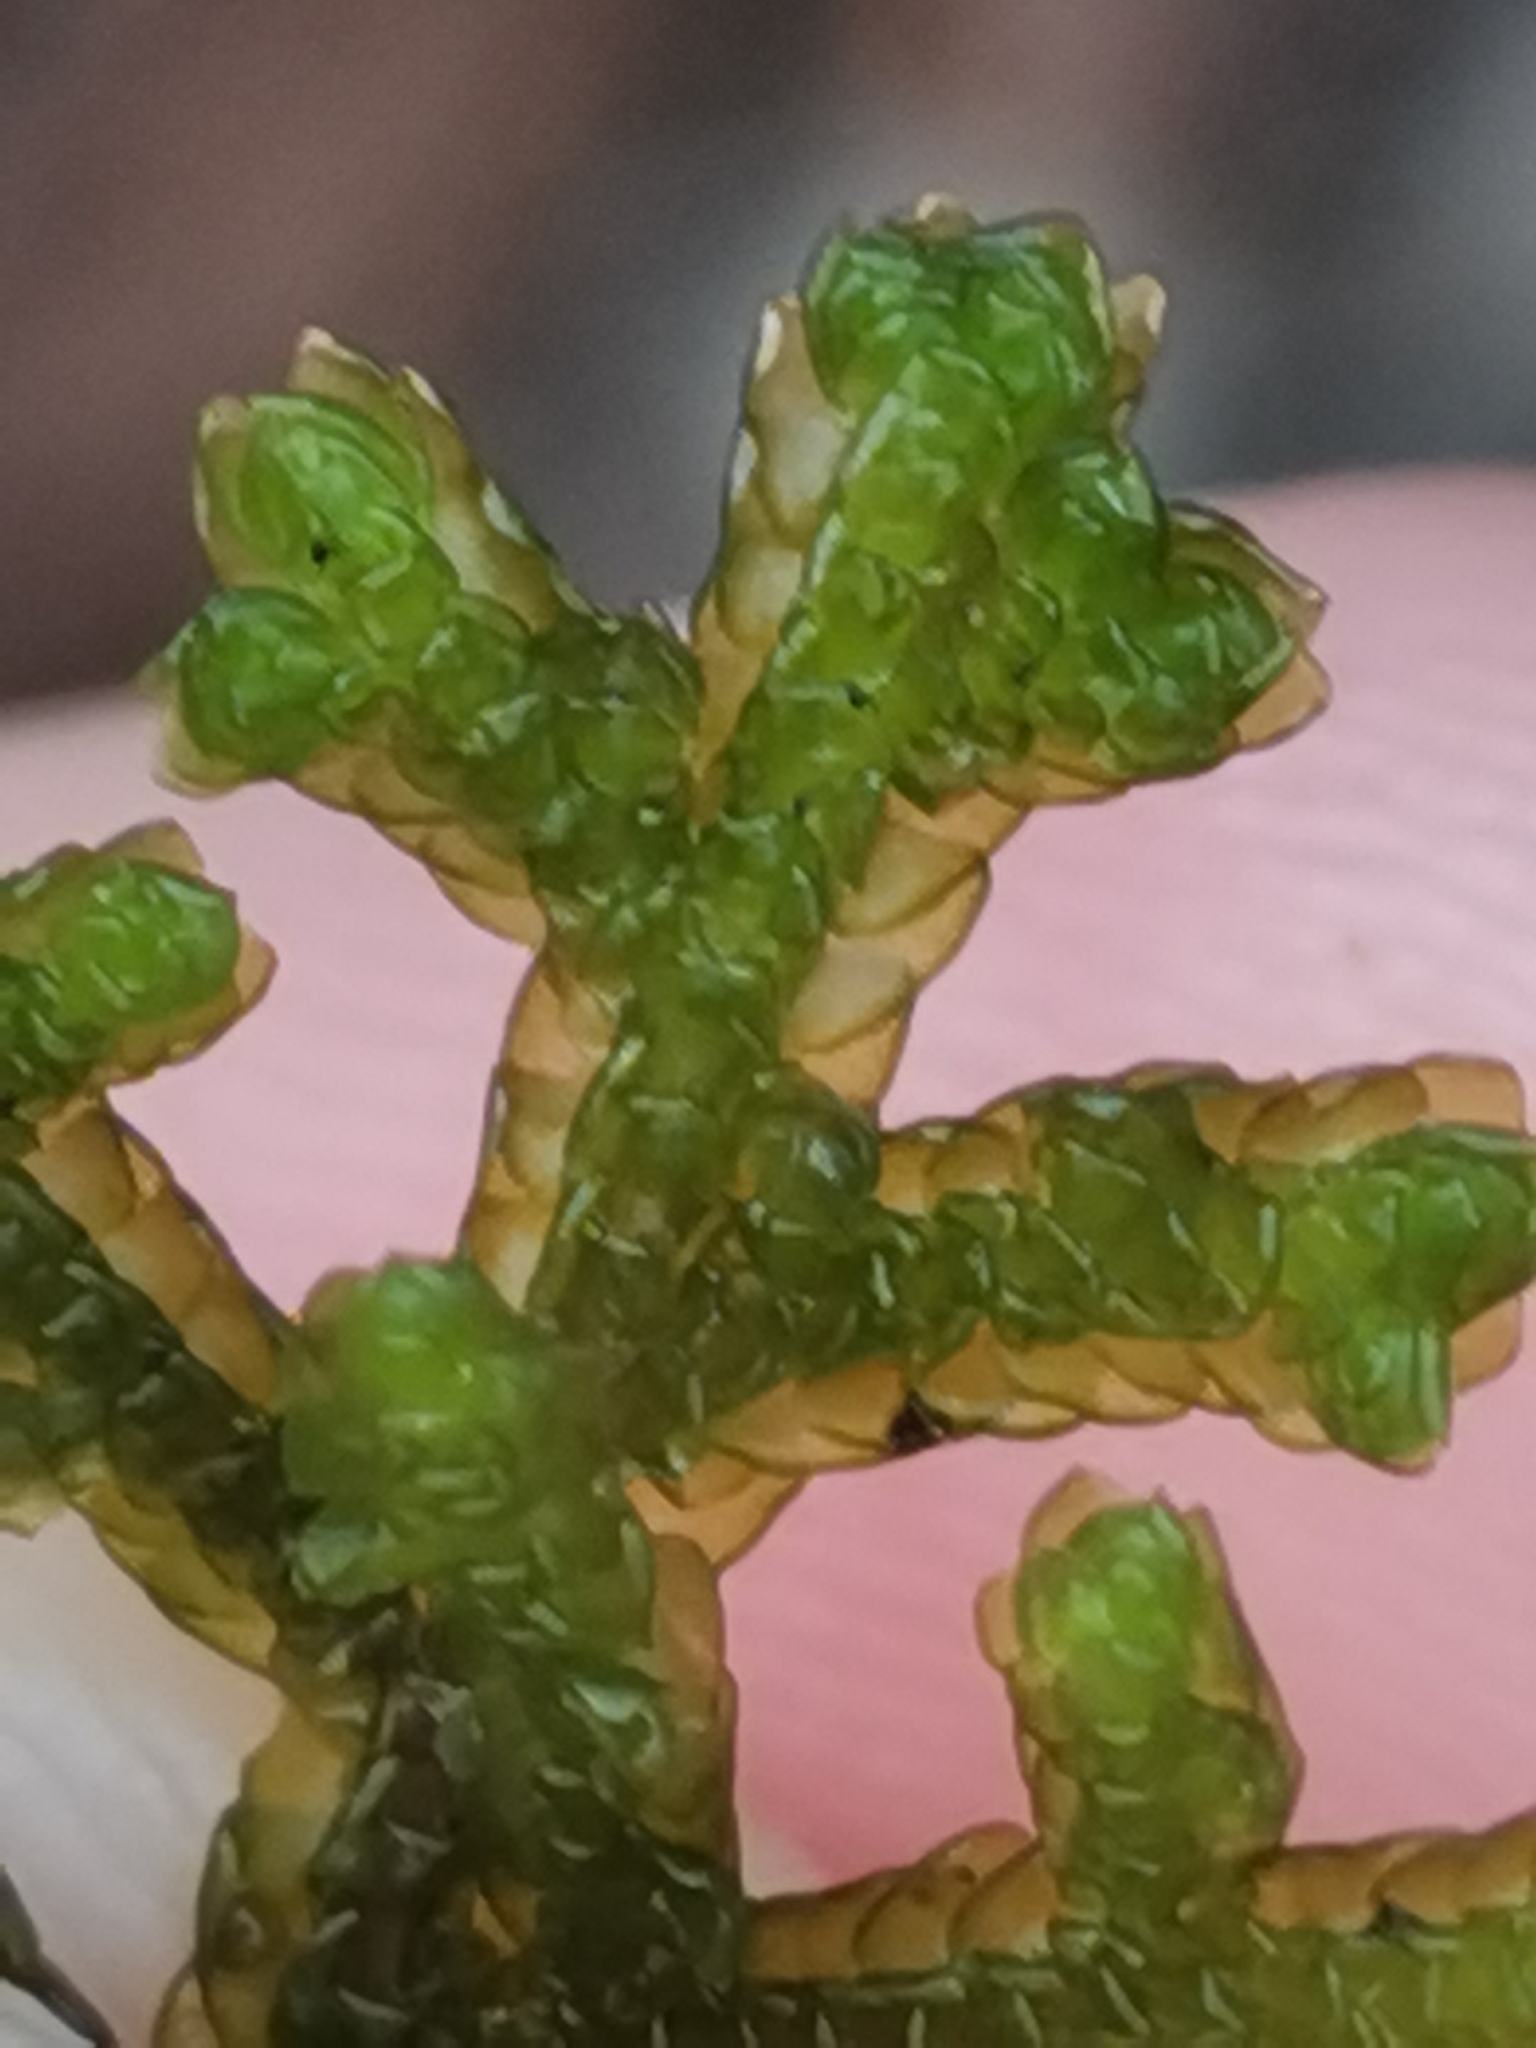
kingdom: Plantae
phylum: Marchantiophyta
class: Jungermanniopsida
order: Porellales
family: Porellaceae
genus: Porella
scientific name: Porella platyphylla
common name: Wall scalewort
